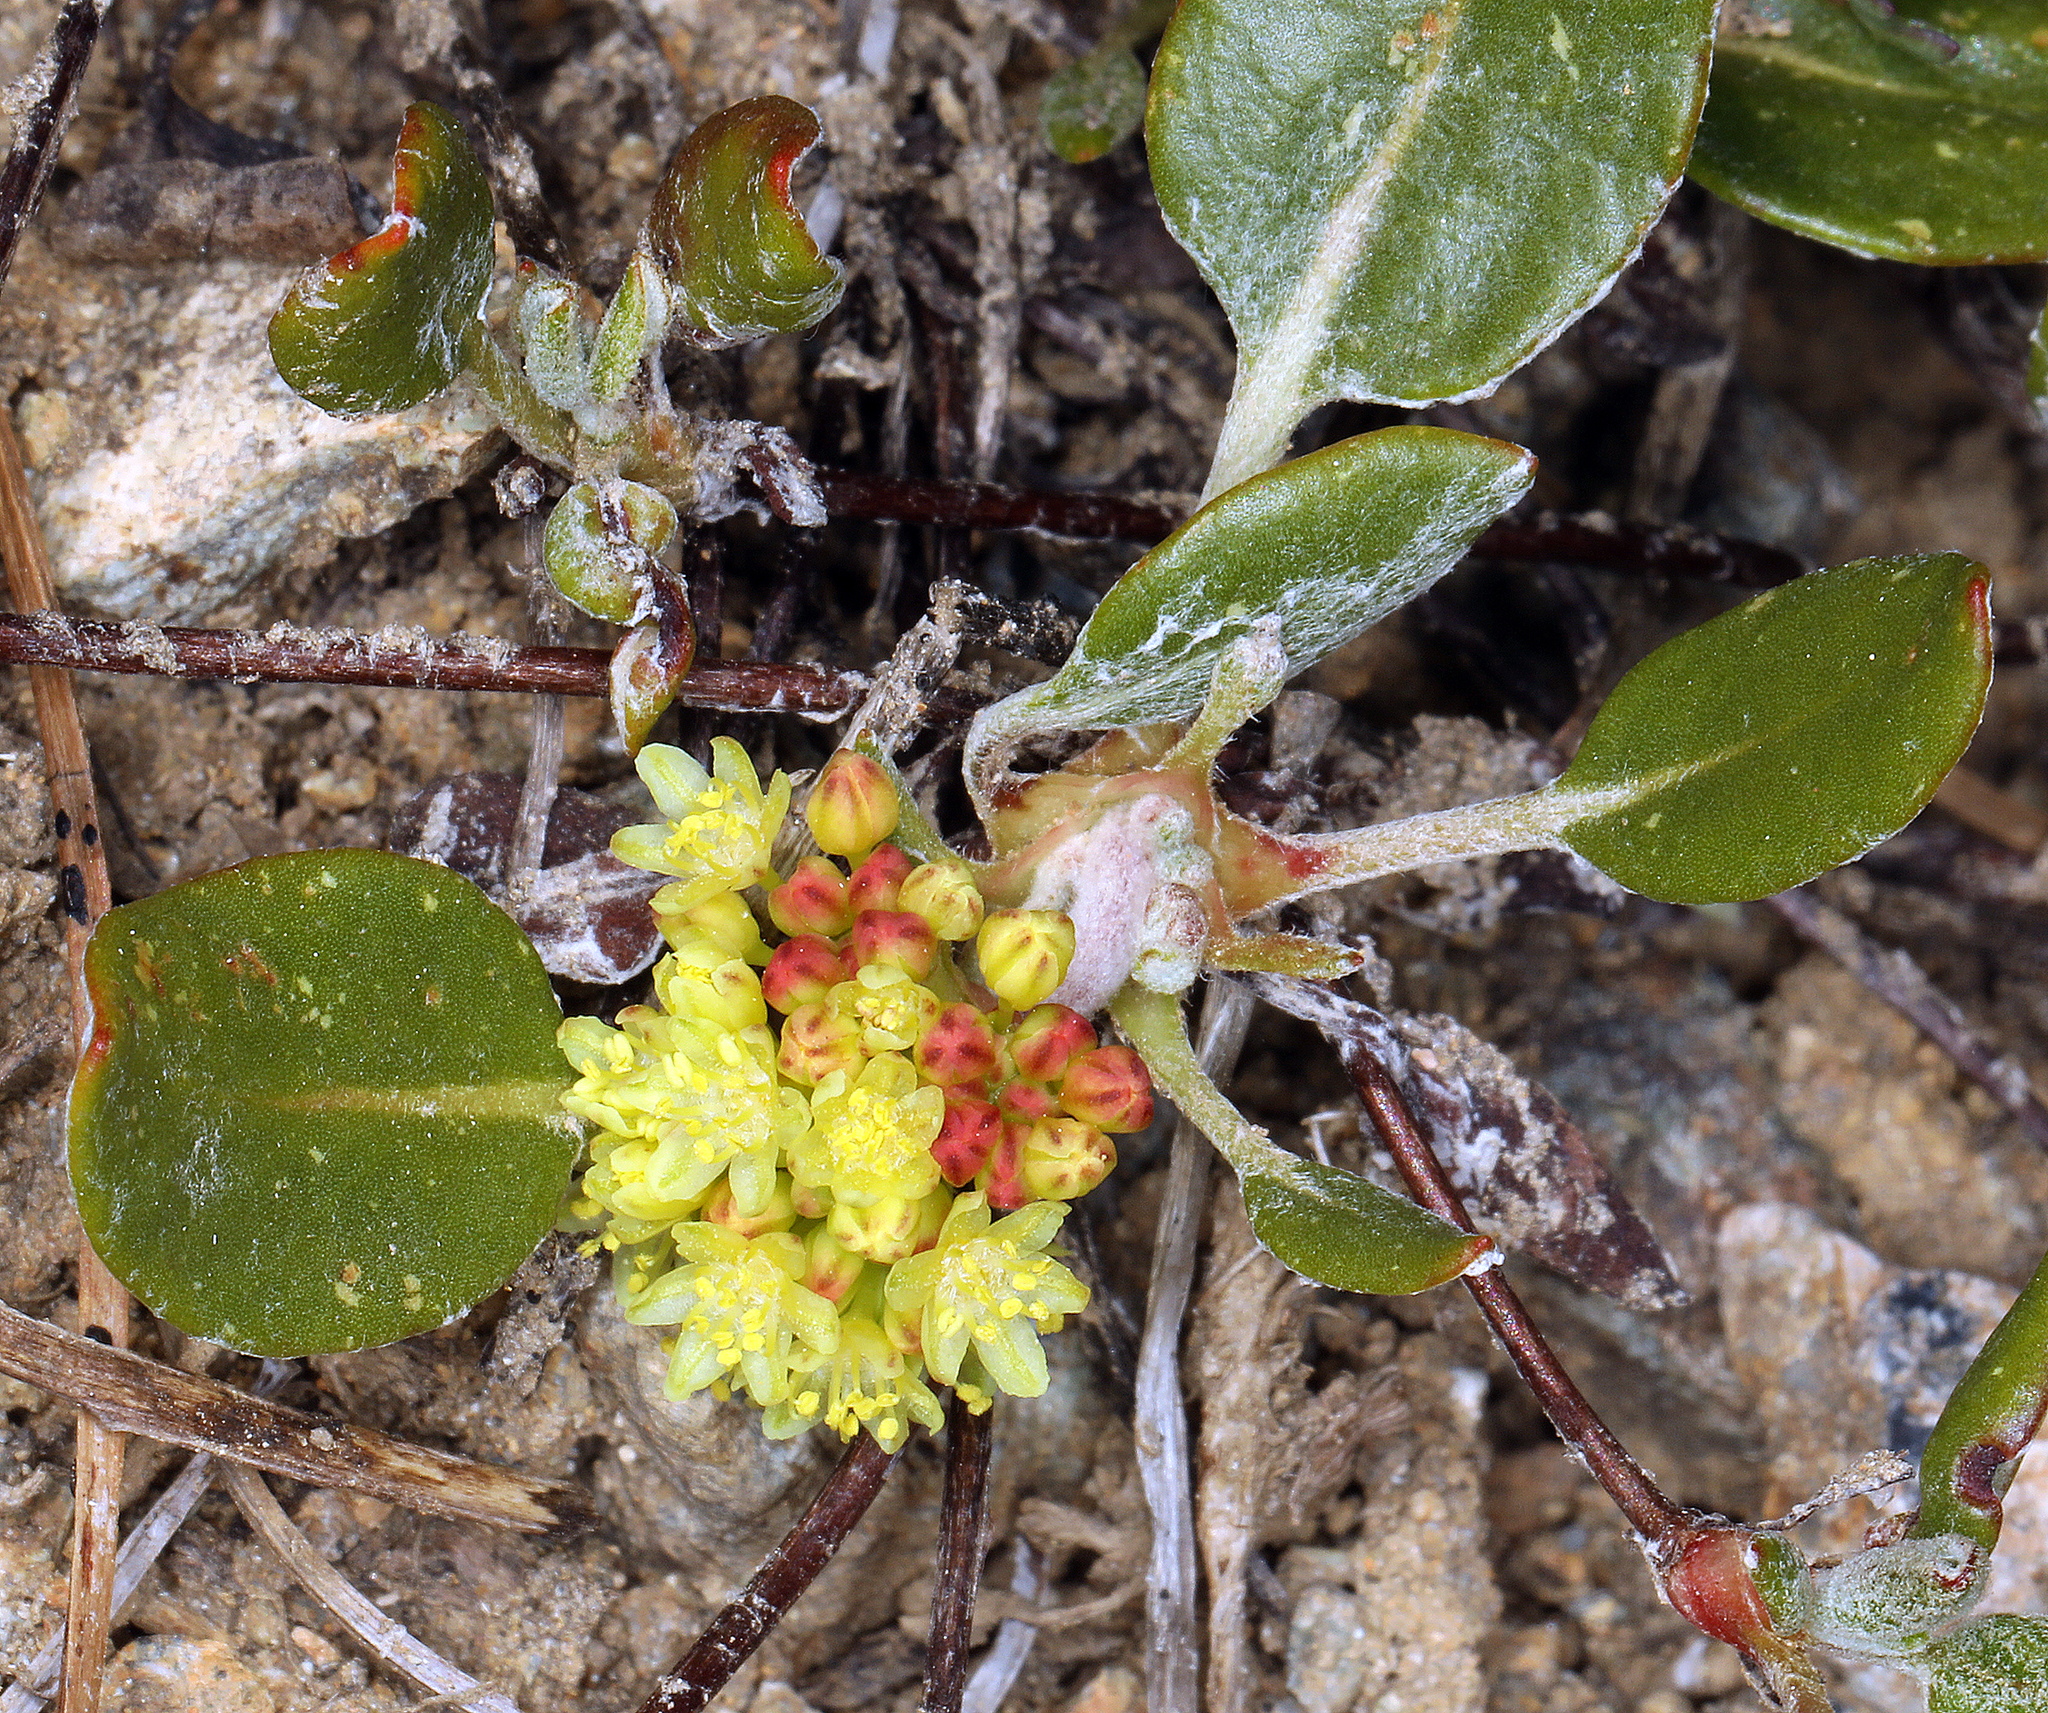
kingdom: Plantae
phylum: Tracheophyta
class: Magnoliopsida
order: Caryophyllales
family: Polygonaceae
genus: Eriogonum
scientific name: Eriogonum marifolium
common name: Marum-leaf wild buckwheat
